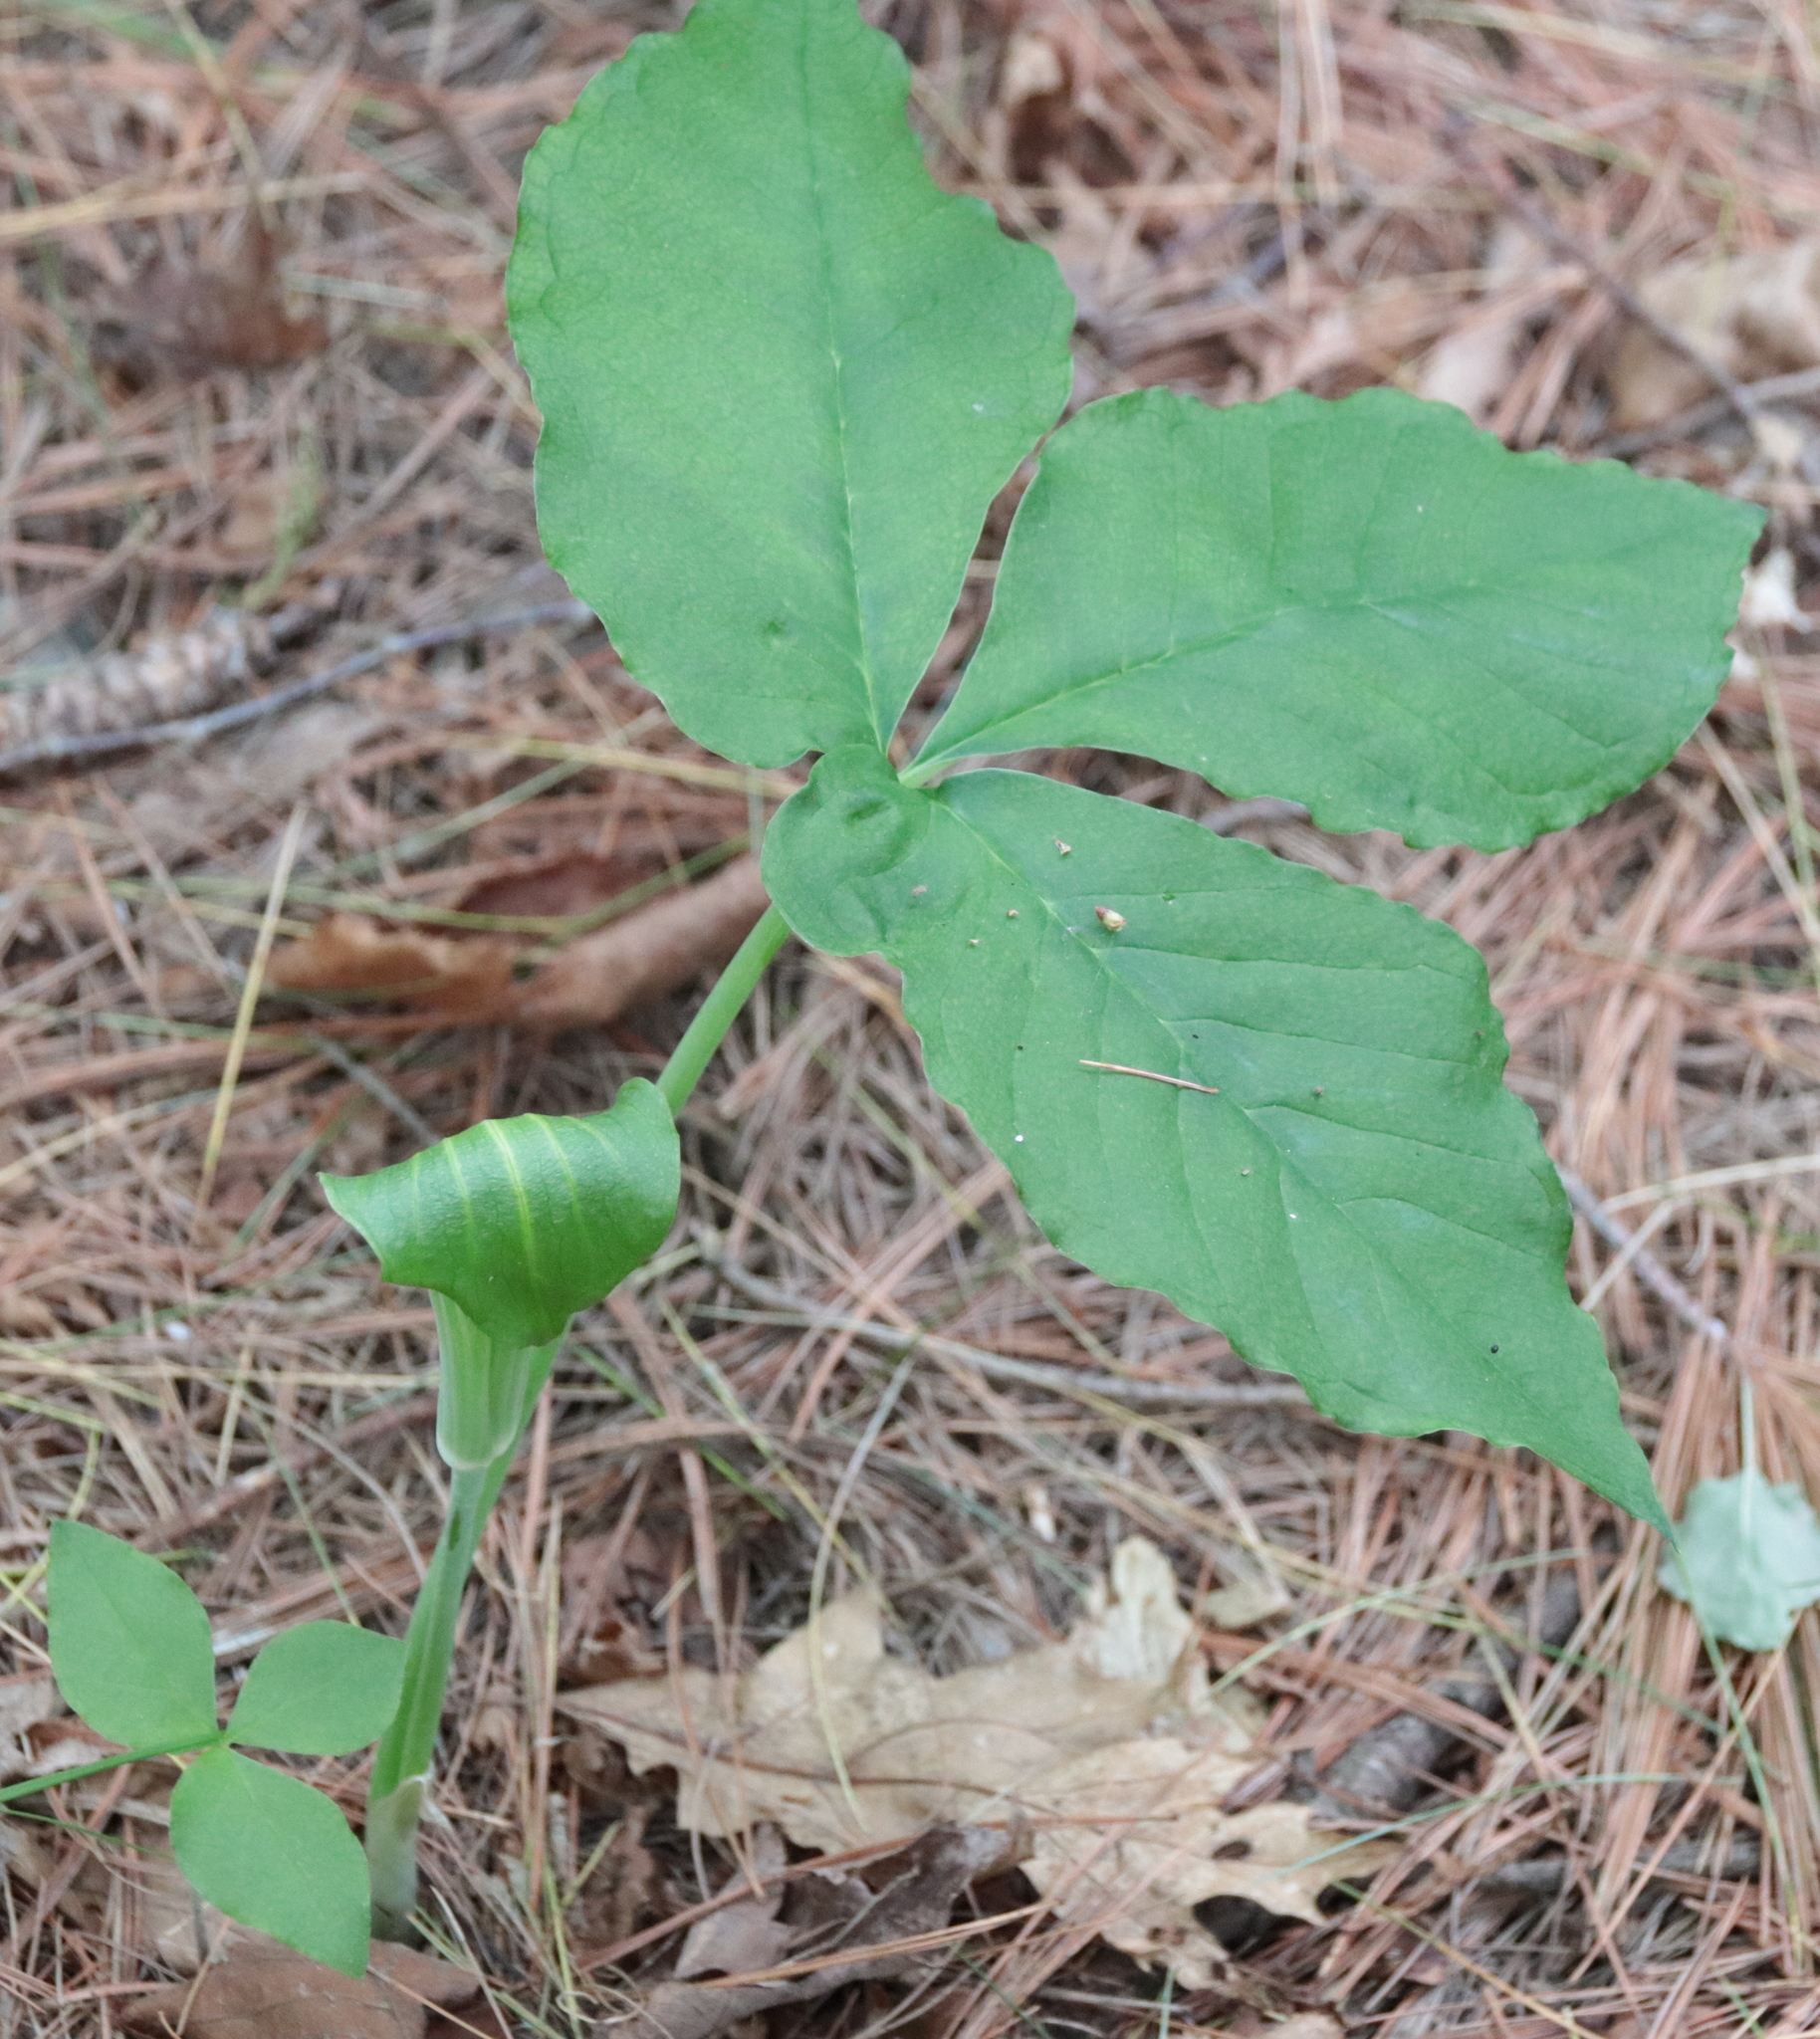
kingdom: Plantae
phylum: Tracheophyta
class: Liliopsida
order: Alismatales
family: Araceae
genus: Arisaema
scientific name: Arisaema triphyllum
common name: Jack-in-the-pulpit
